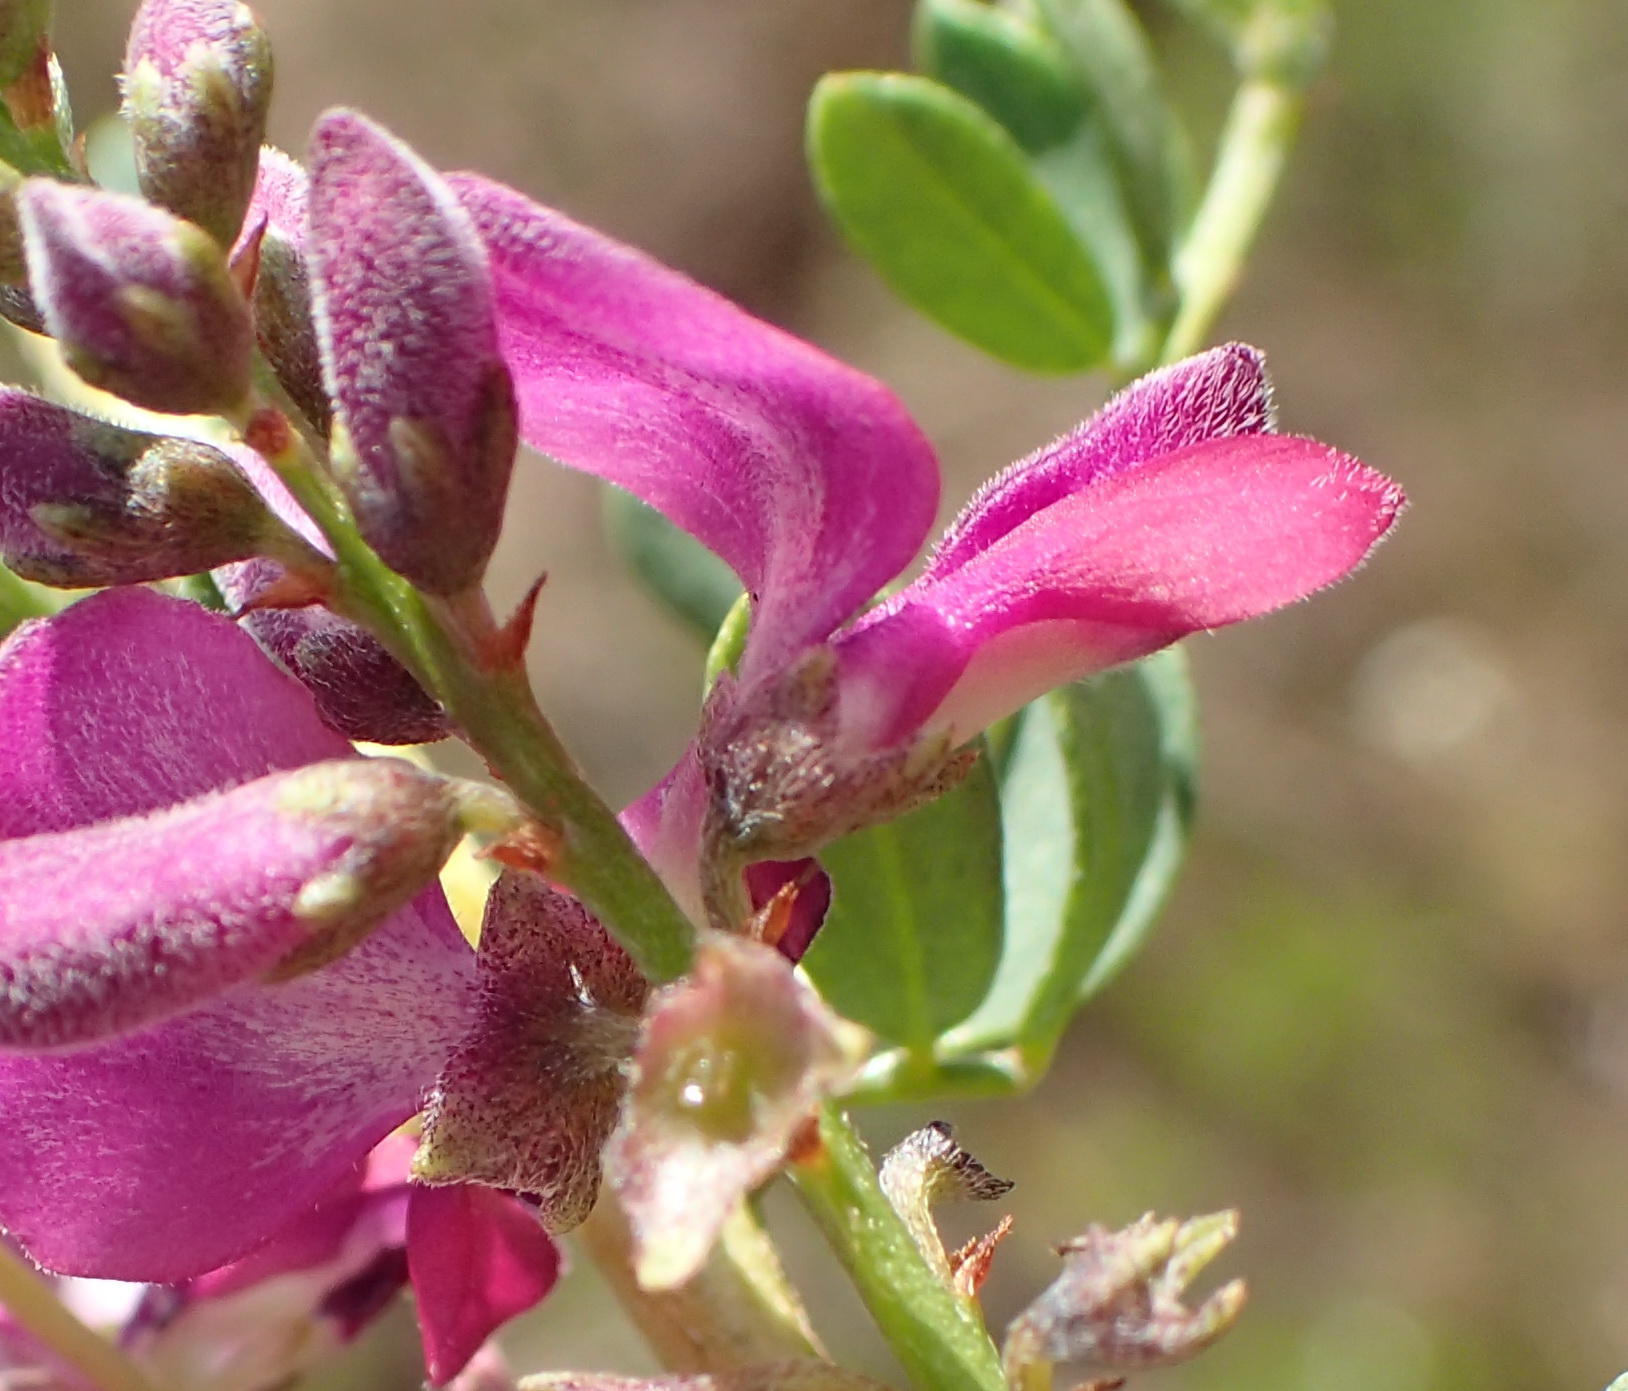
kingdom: Plantae
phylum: Tracheophyta
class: Magnoliopsida
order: Fabales
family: Fabaceae
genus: Indigofera
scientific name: Indigofera denudata
